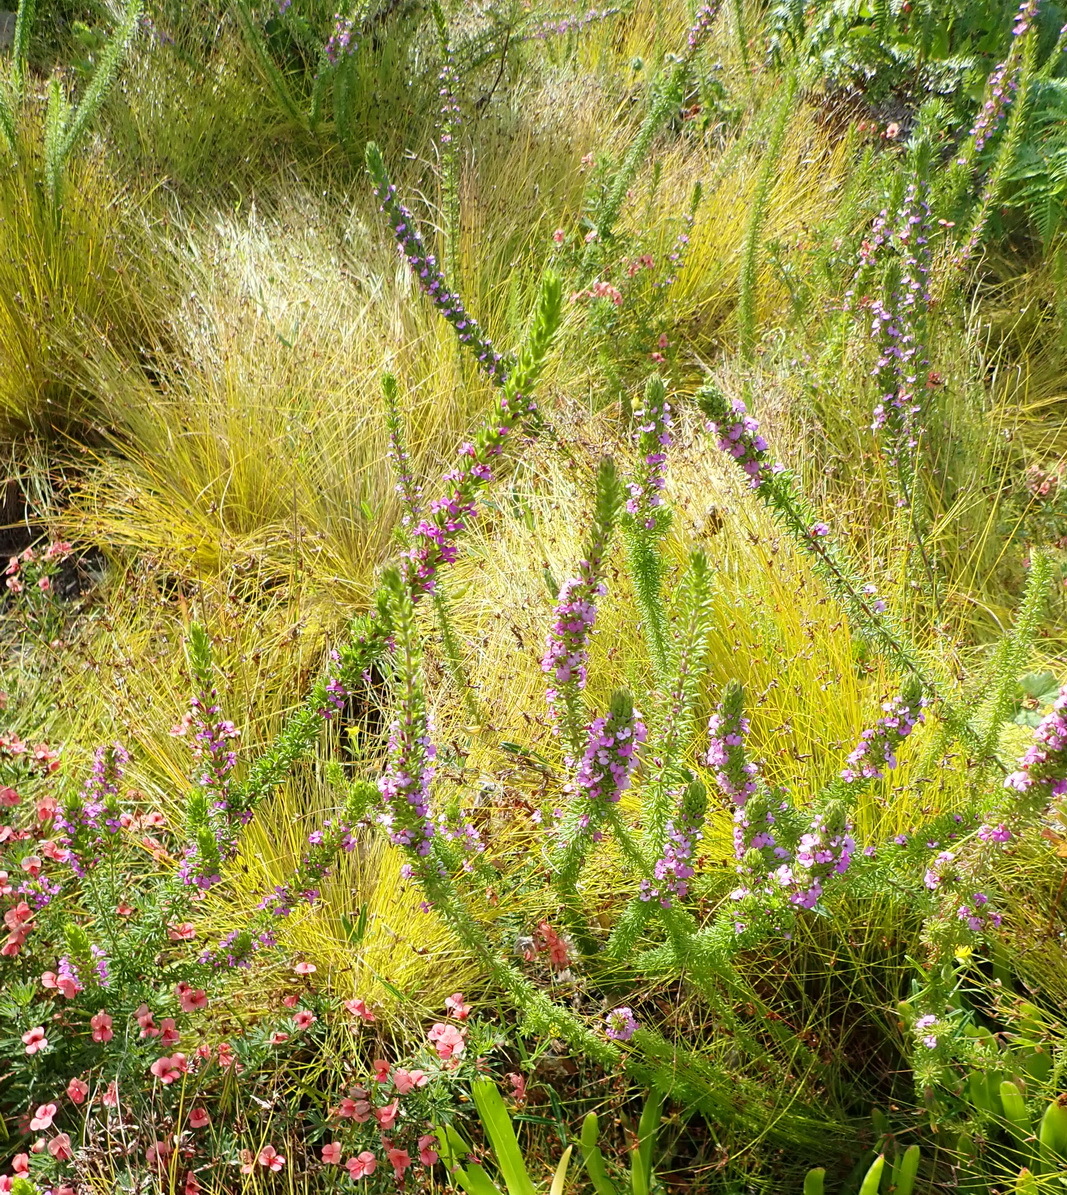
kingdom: Plantae
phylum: Tracheophyta
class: Magnoliopsida
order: Fabales
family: Polygalaceae
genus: Muraltia
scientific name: Muraltia alopecuroides
